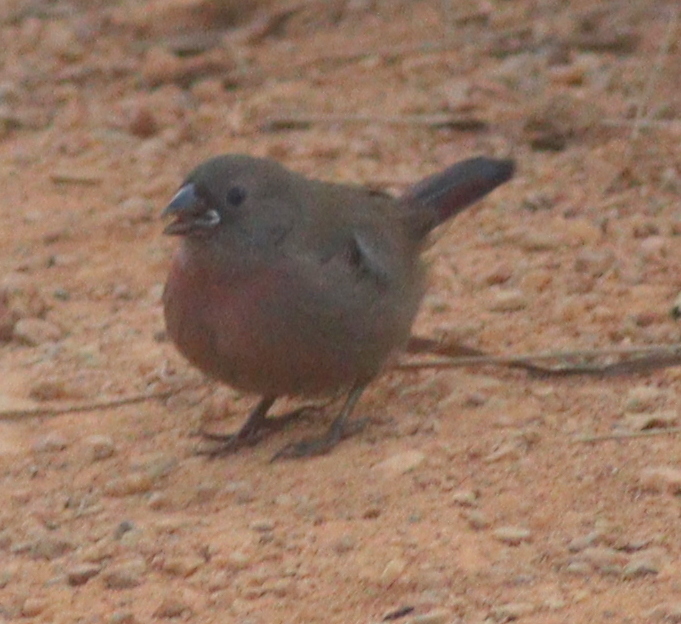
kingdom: Animalia
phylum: Chordata
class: Aves
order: Passeriformes
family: Estrildidae
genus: Lagonosticta
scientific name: Lagonosticta rubricata
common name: African firefinch
